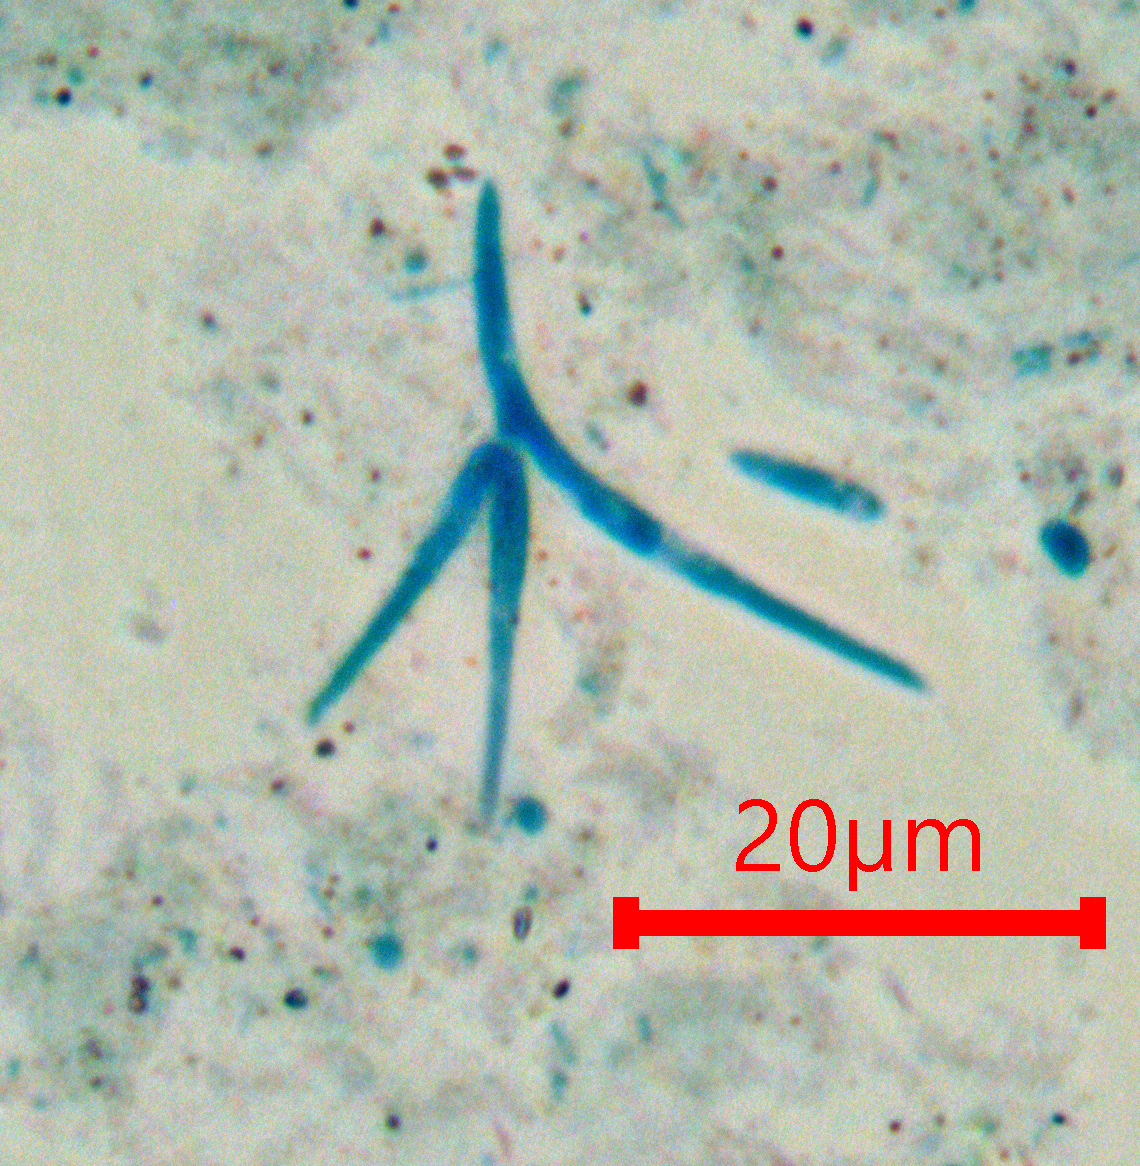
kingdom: Fungi
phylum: Ascomycota
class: Leotiomycetes
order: Leotiales
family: Leotiaceae
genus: Alatospora
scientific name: Alatospora acuminata
